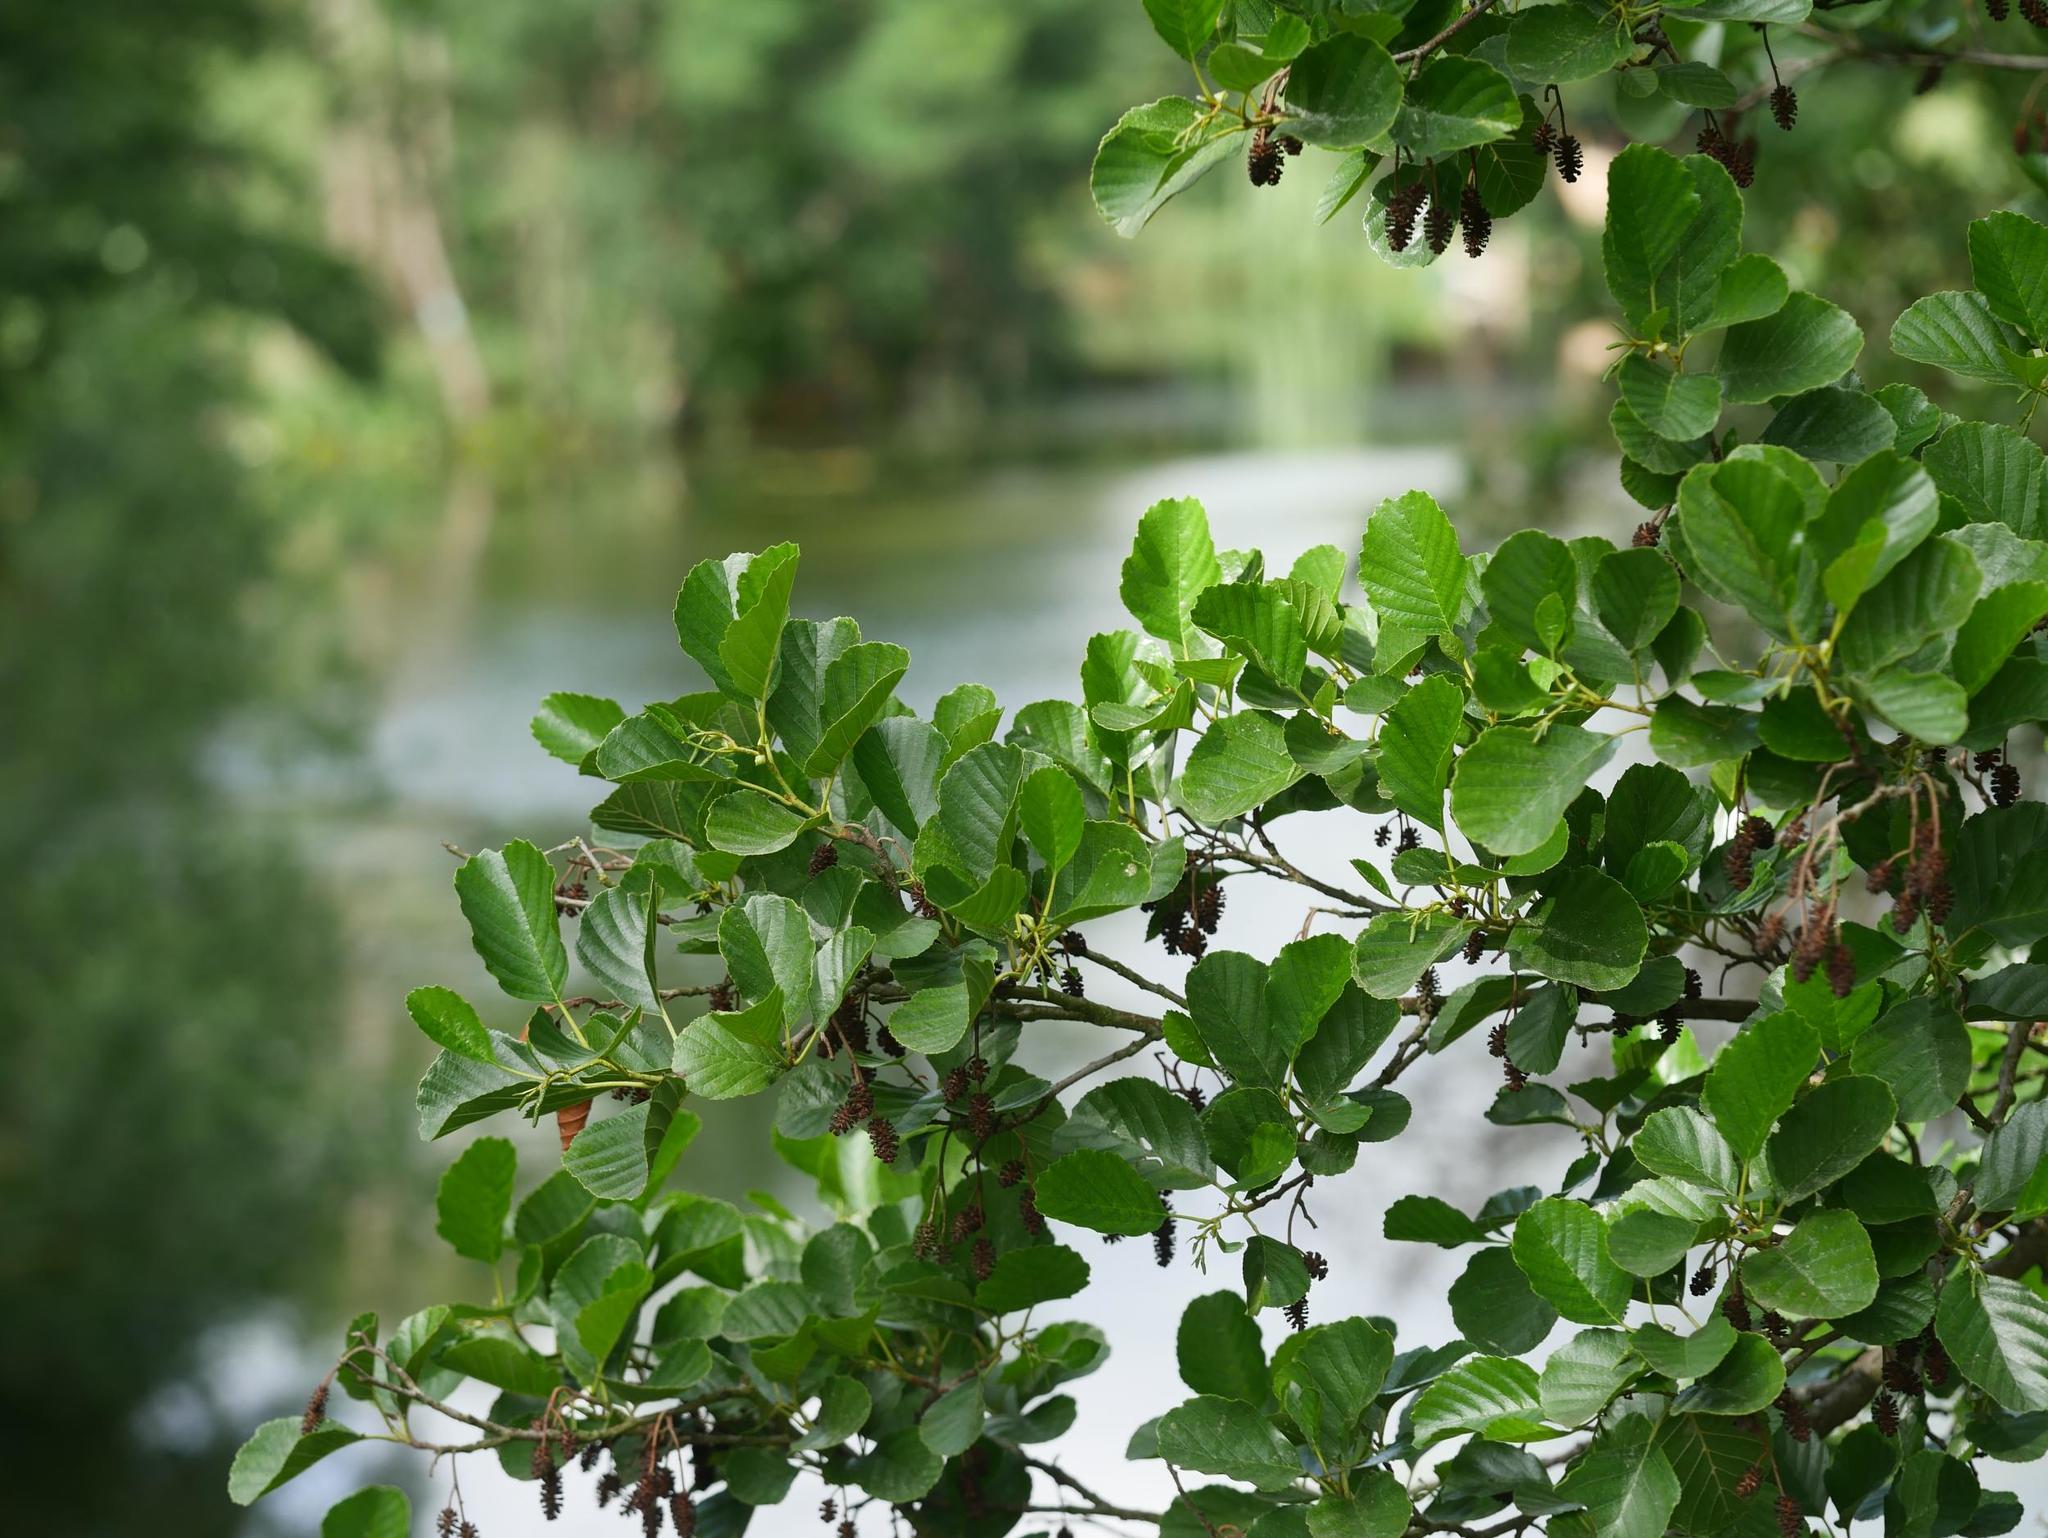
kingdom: Plantae
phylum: Tracheophyta
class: Magnoliopsida
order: Fagales
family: Betulaceae
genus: Alnus
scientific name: Alnus glutinosa
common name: Black alder
